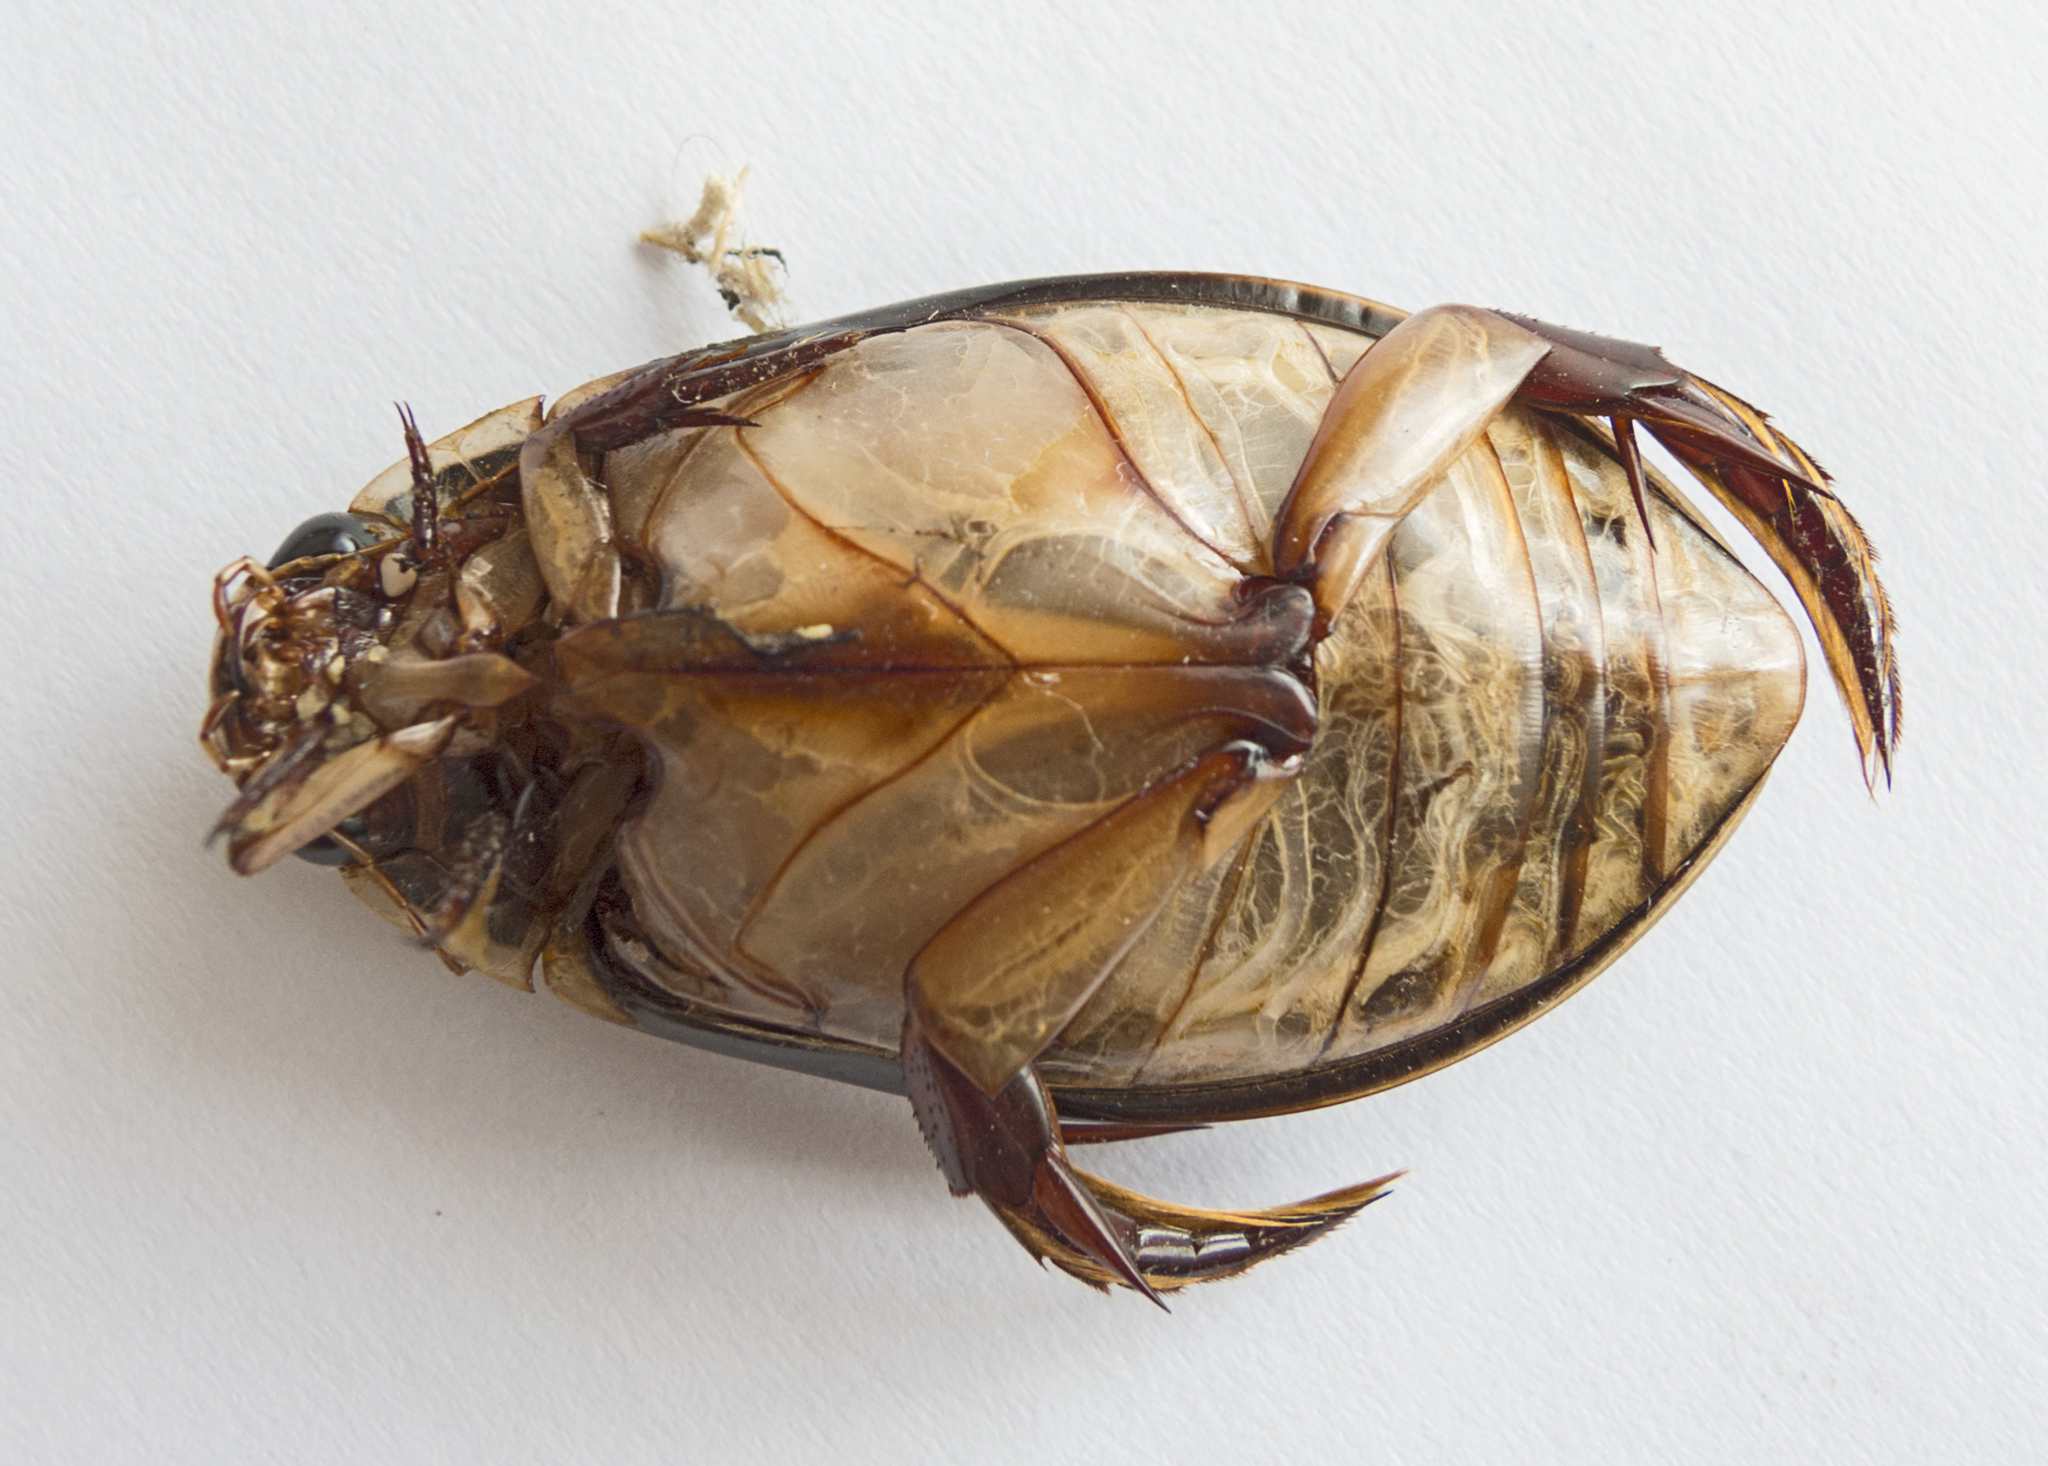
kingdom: Animalia
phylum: Arthropoda
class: Insecta
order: Coleoptera
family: Dytiscidae
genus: Cybister
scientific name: Cybister lateralimarginalis
